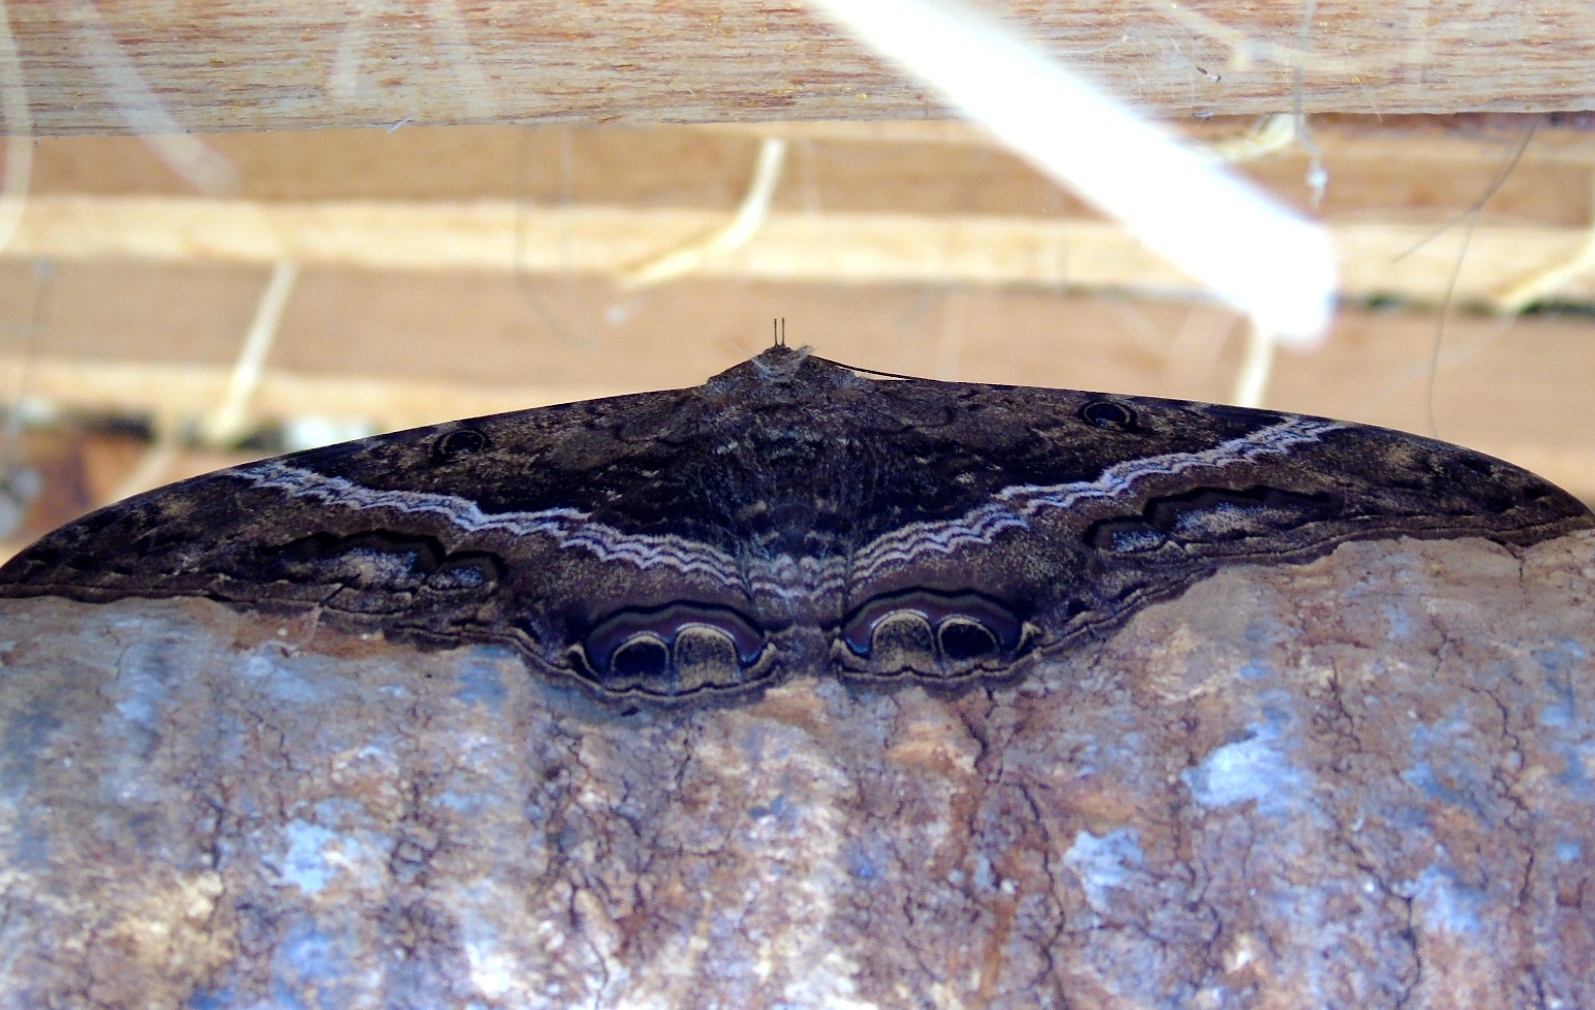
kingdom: Animalia
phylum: Arthropoda
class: Insecta
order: Lepidoptera
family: Erebidae
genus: Ascalapha
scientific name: Ascalapha odorata
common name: Black witch
